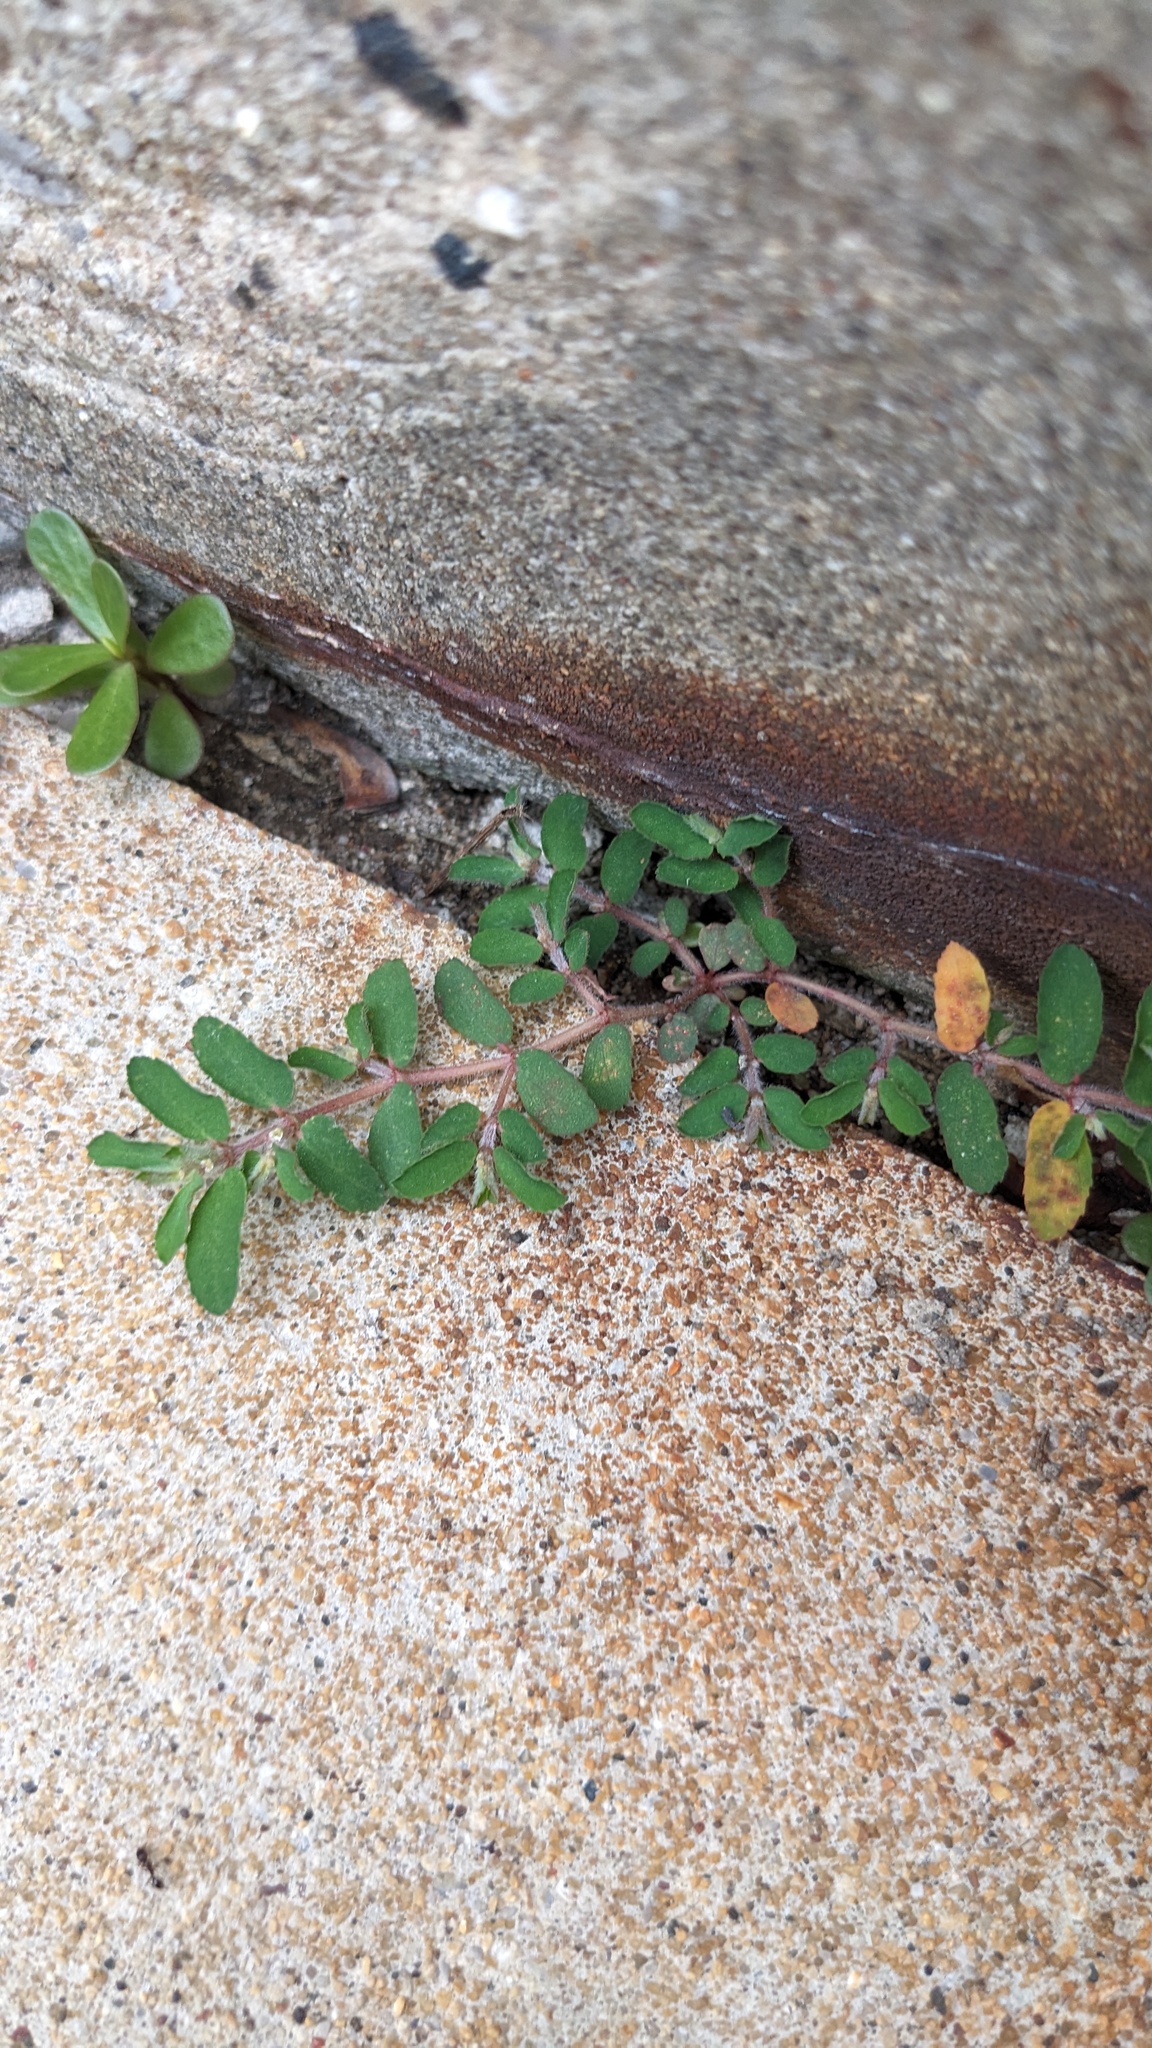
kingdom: Plantae
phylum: Tracheophyta
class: Magnoliopsida
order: Malpighiales
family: Euphorbiaceae
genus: Euphorbia
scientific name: Euphorbia maculata
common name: Spotted spurge
